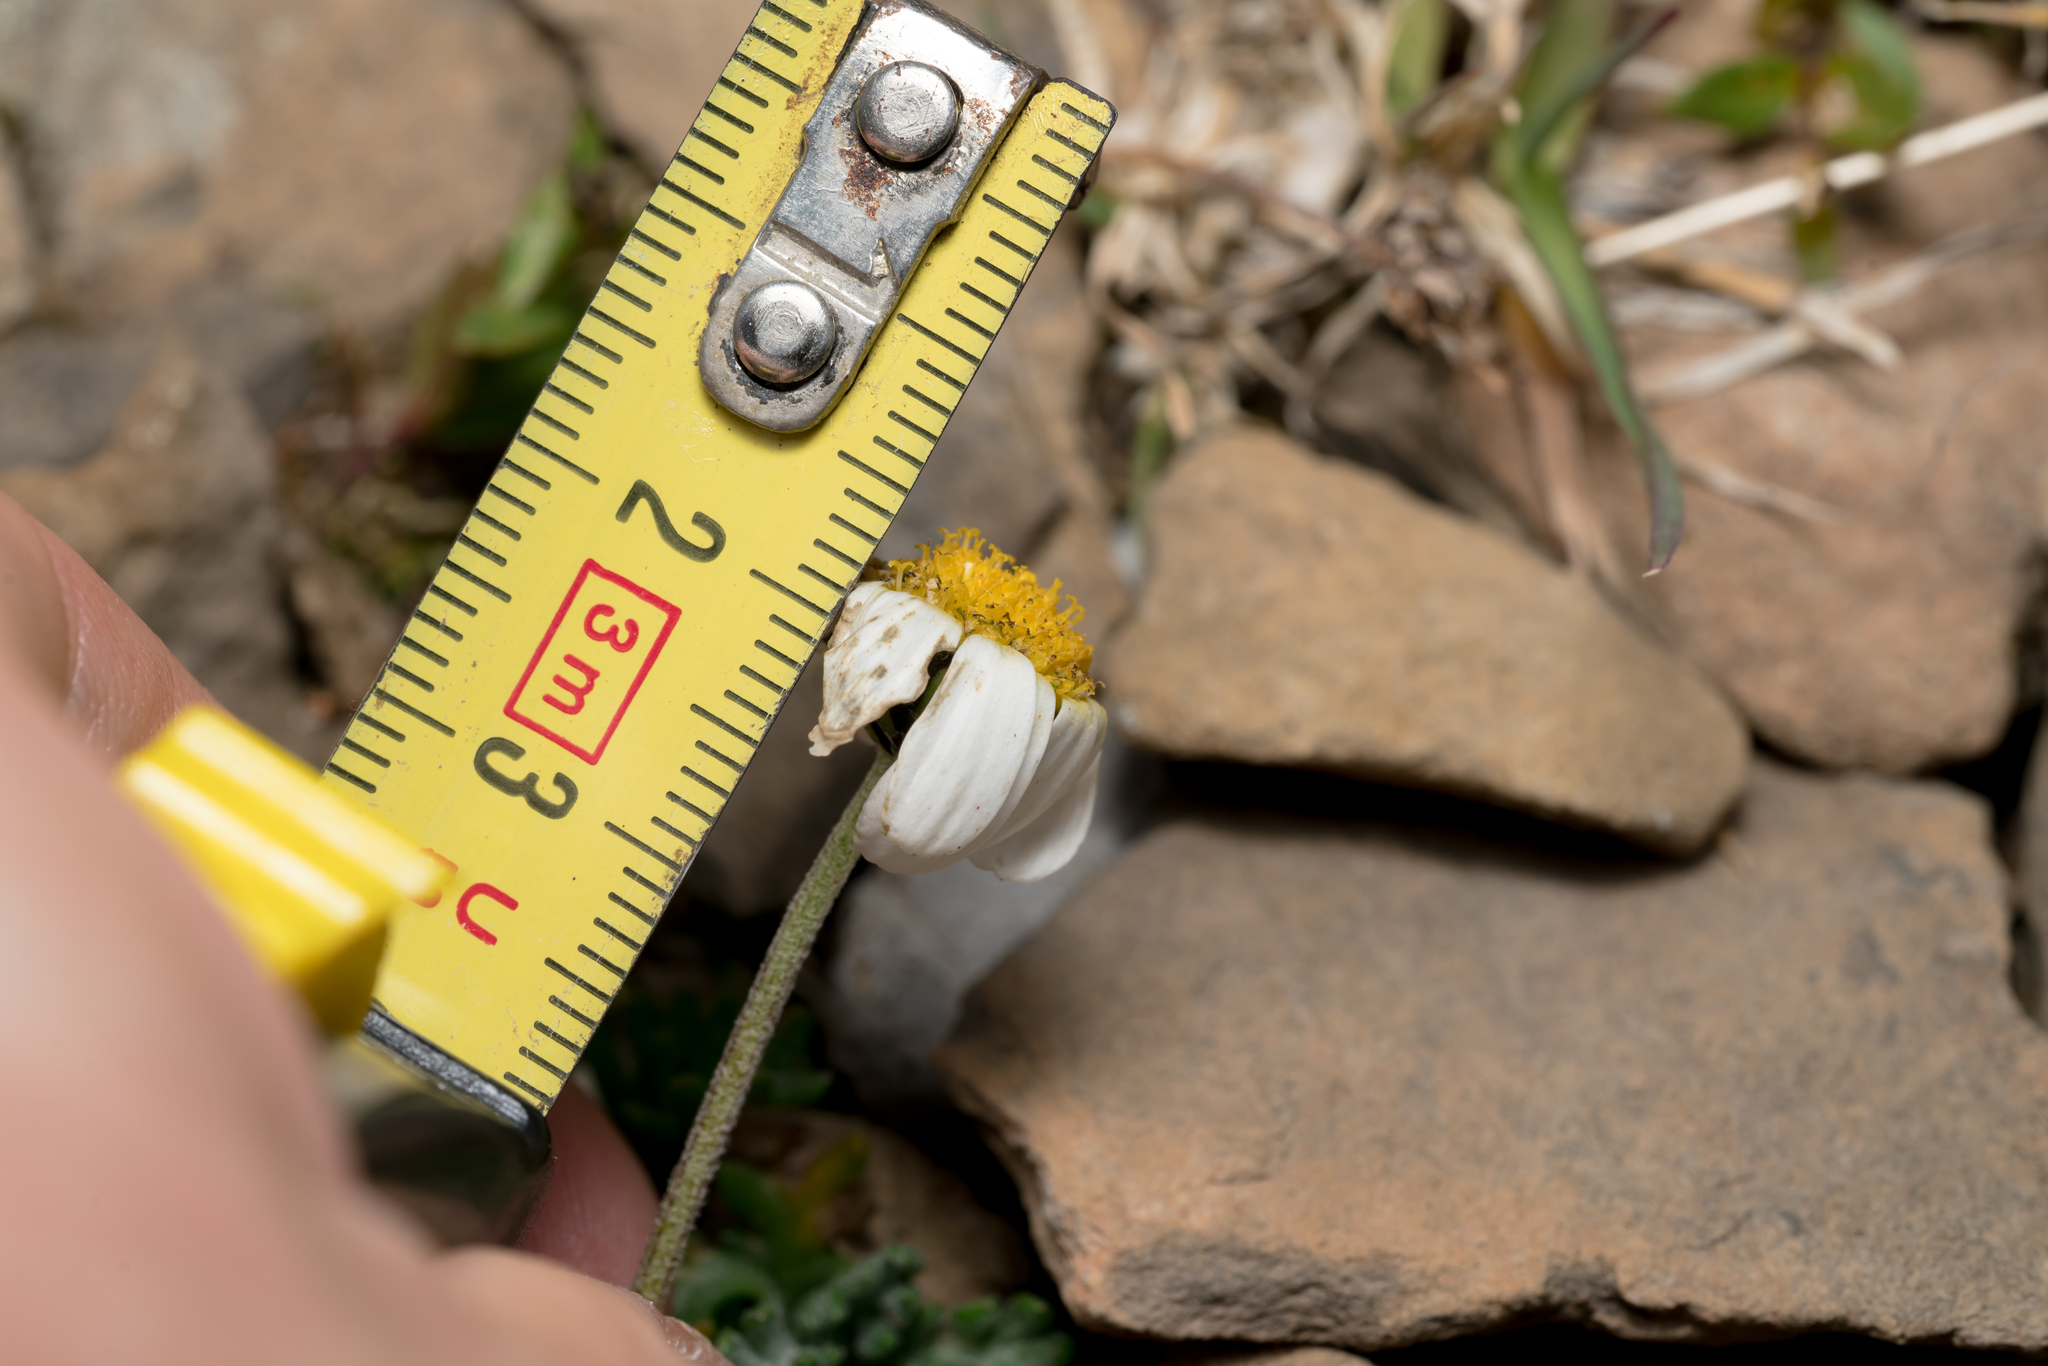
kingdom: Plantae
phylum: Tracheophyta
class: Magnoliopsida
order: Asterales
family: Asteraceae
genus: Leucanthemopsis
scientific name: Leucanthemopsis alpina
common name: Alpine moon daisy
